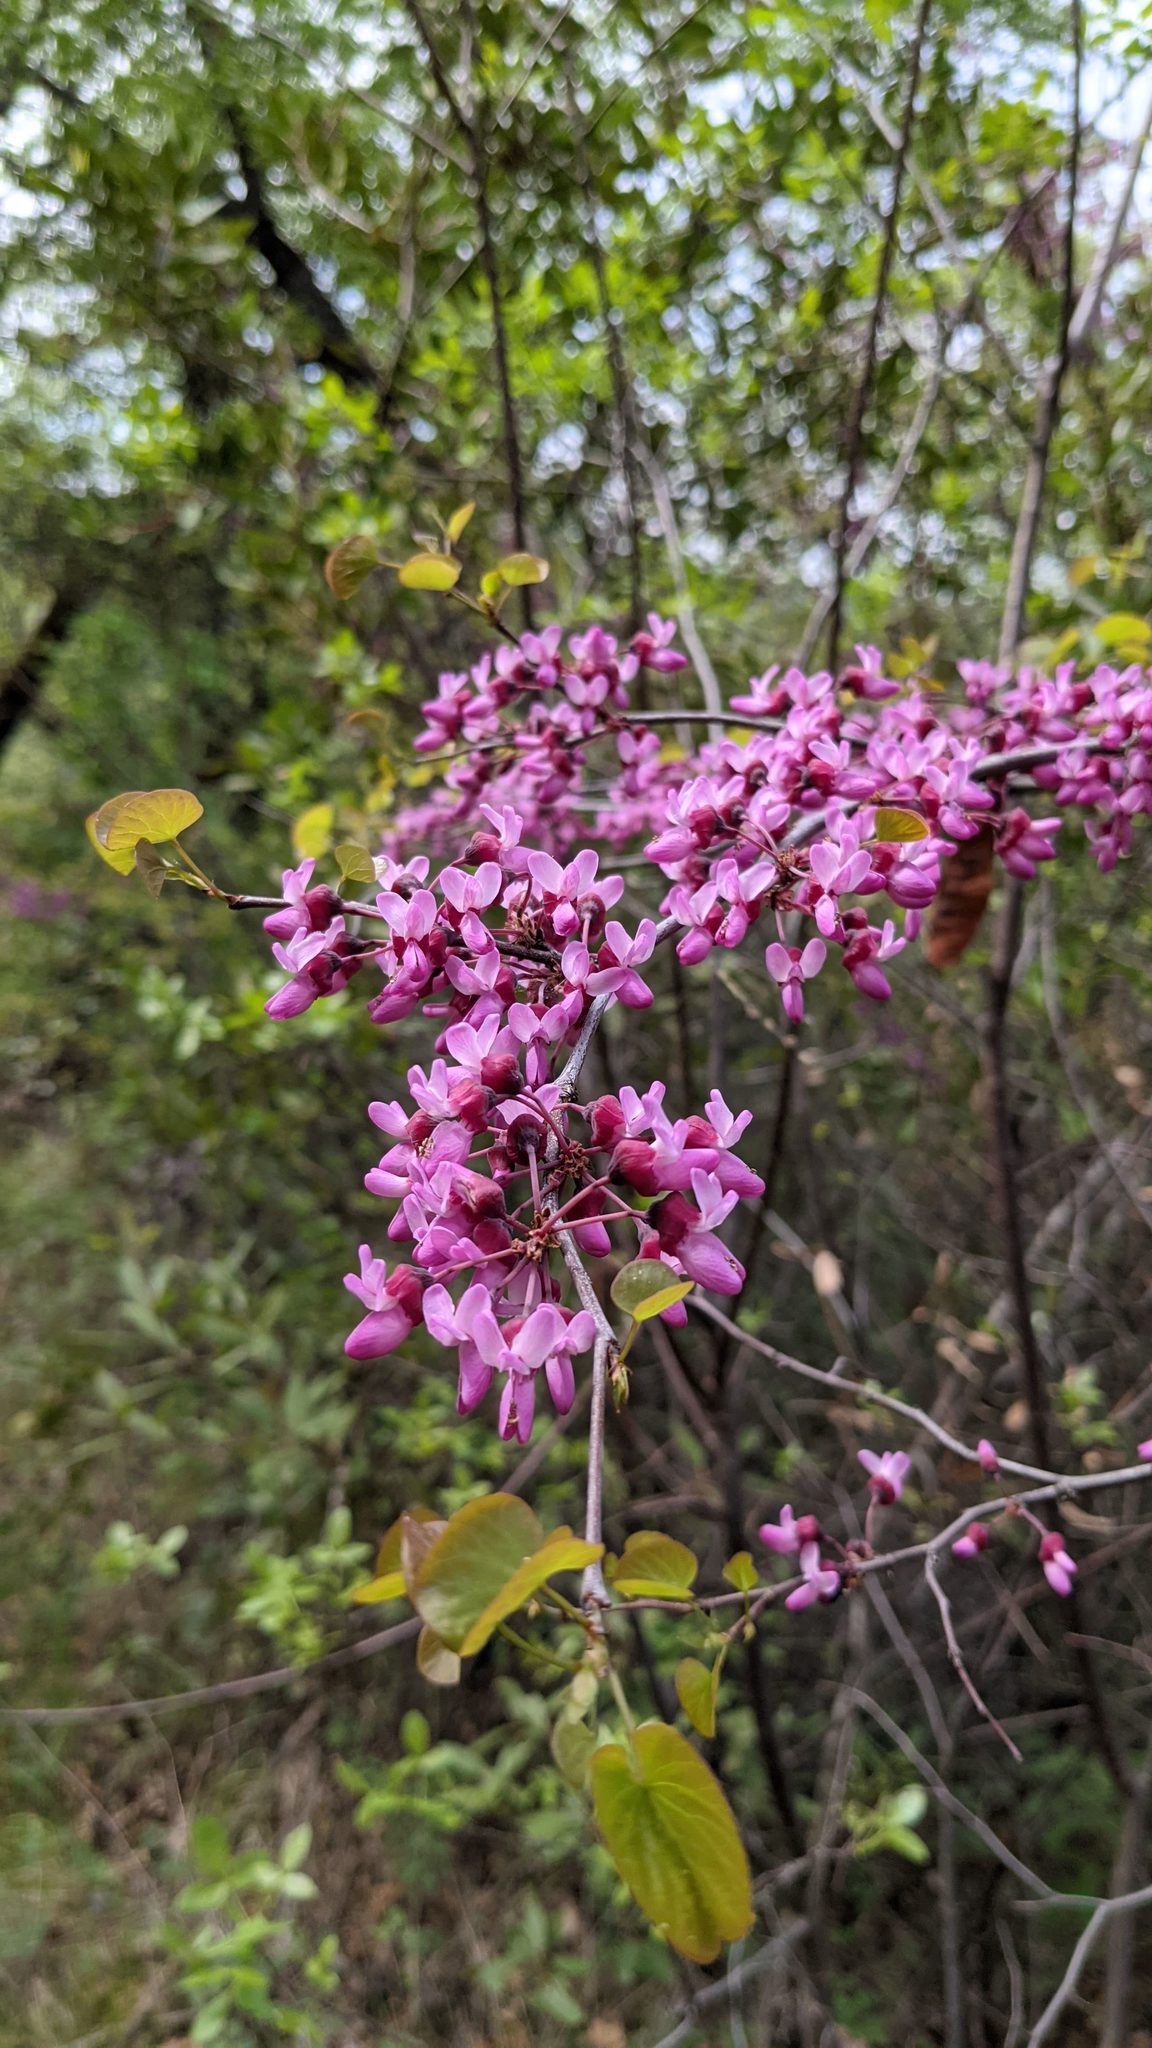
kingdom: Plantae
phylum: Tracheophyta
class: Magnoliopsida
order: Fabales
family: Fabaceae
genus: Cercis
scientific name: Cercis occidentalis
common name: California redbud
